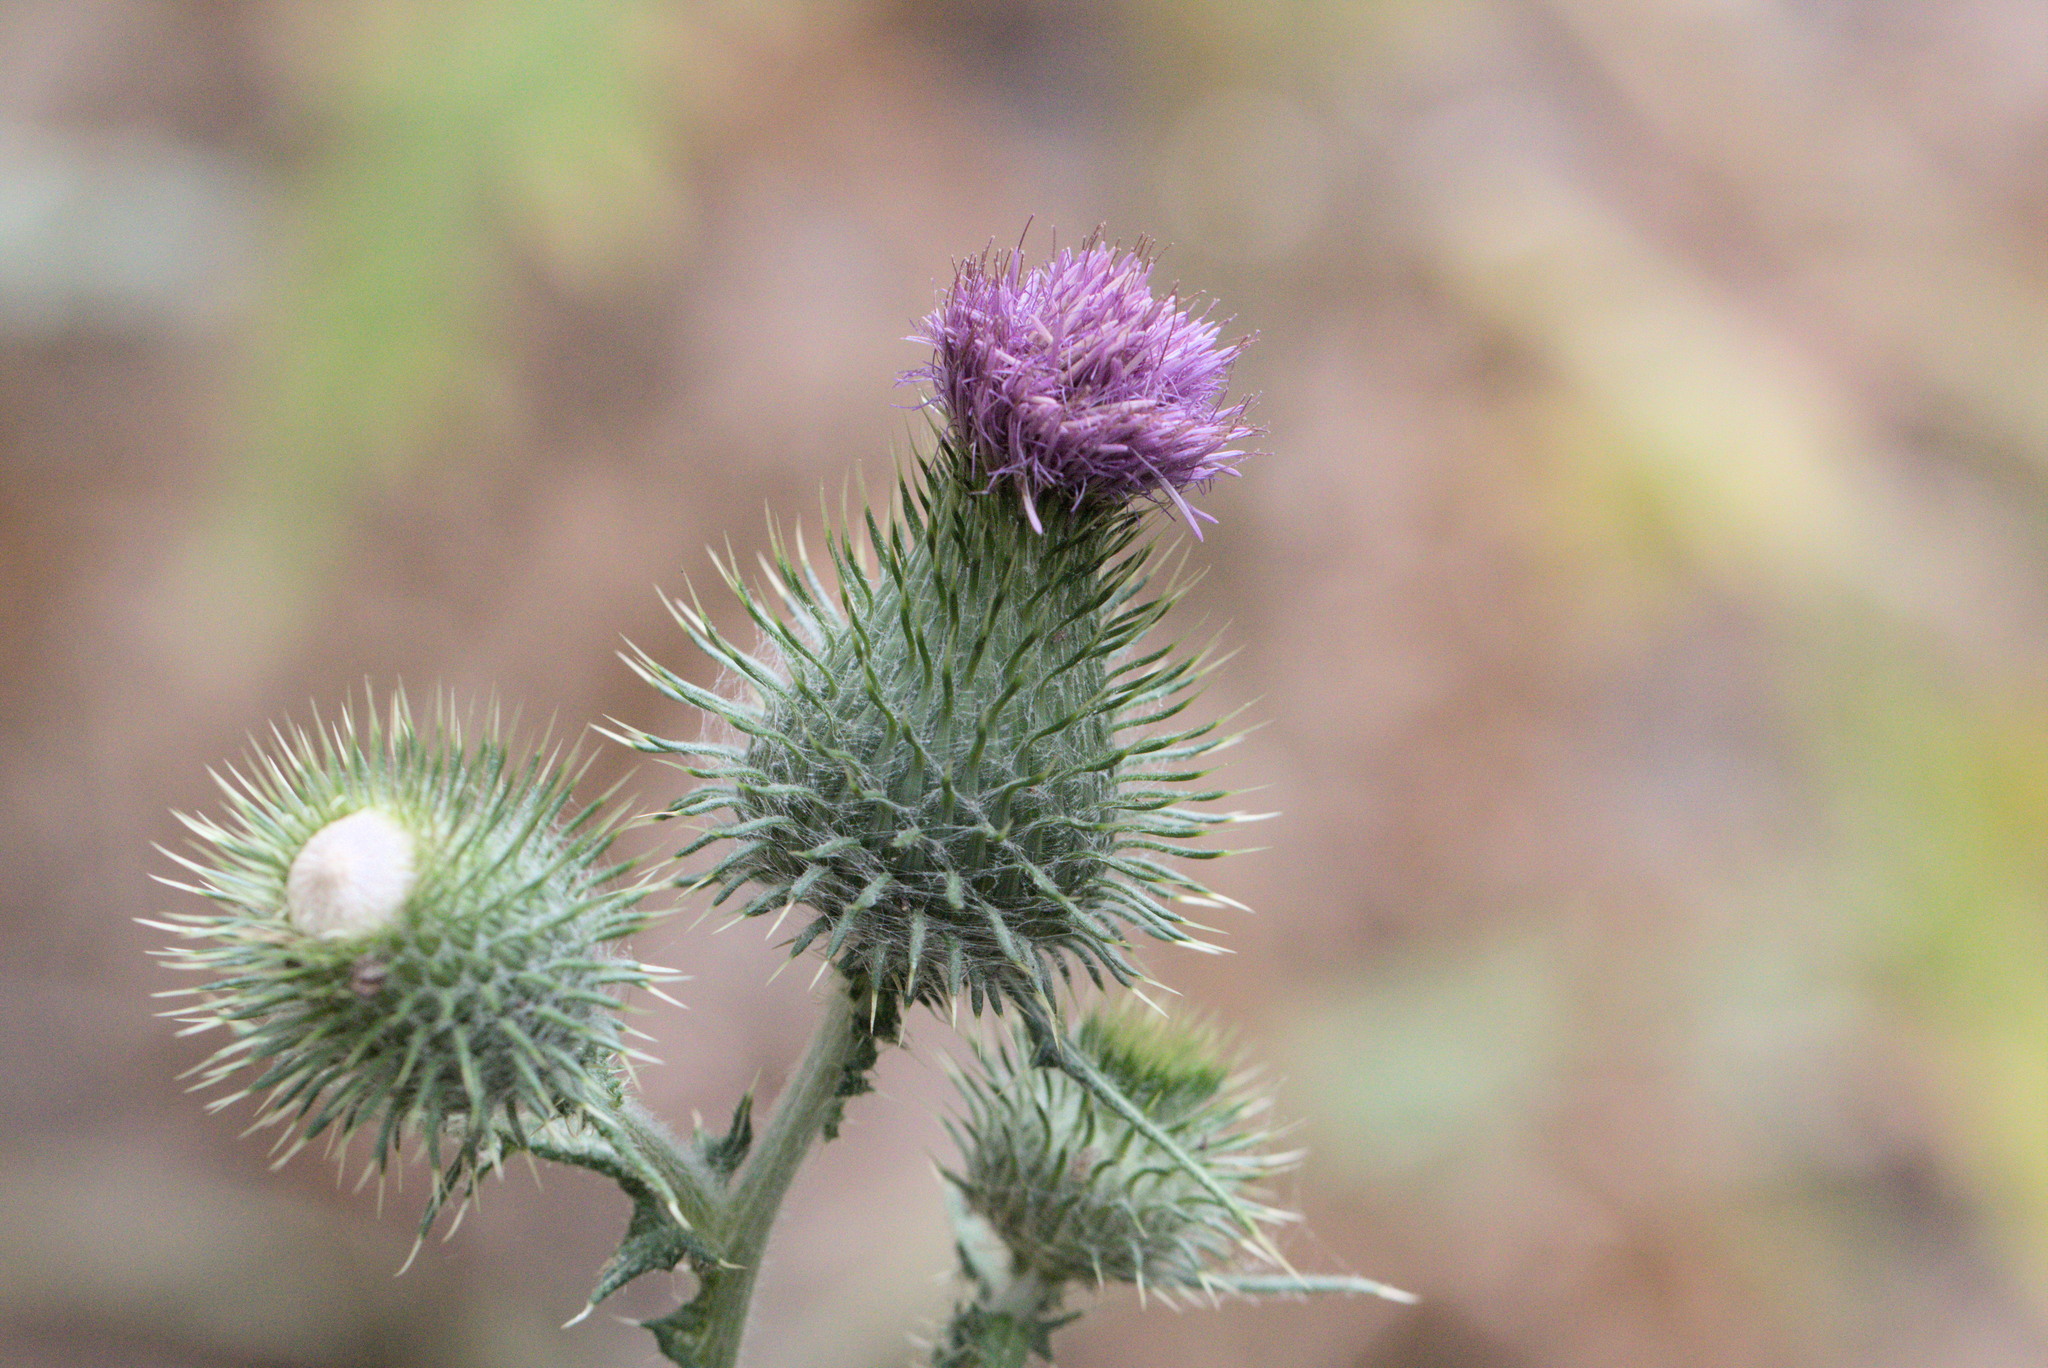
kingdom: Plantae
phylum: Tracheophyta
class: Magnoliopsida
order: Asterales
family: Asteraceae
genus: Cirsium
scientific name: Cirsium vulgare
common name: Bull thistle
